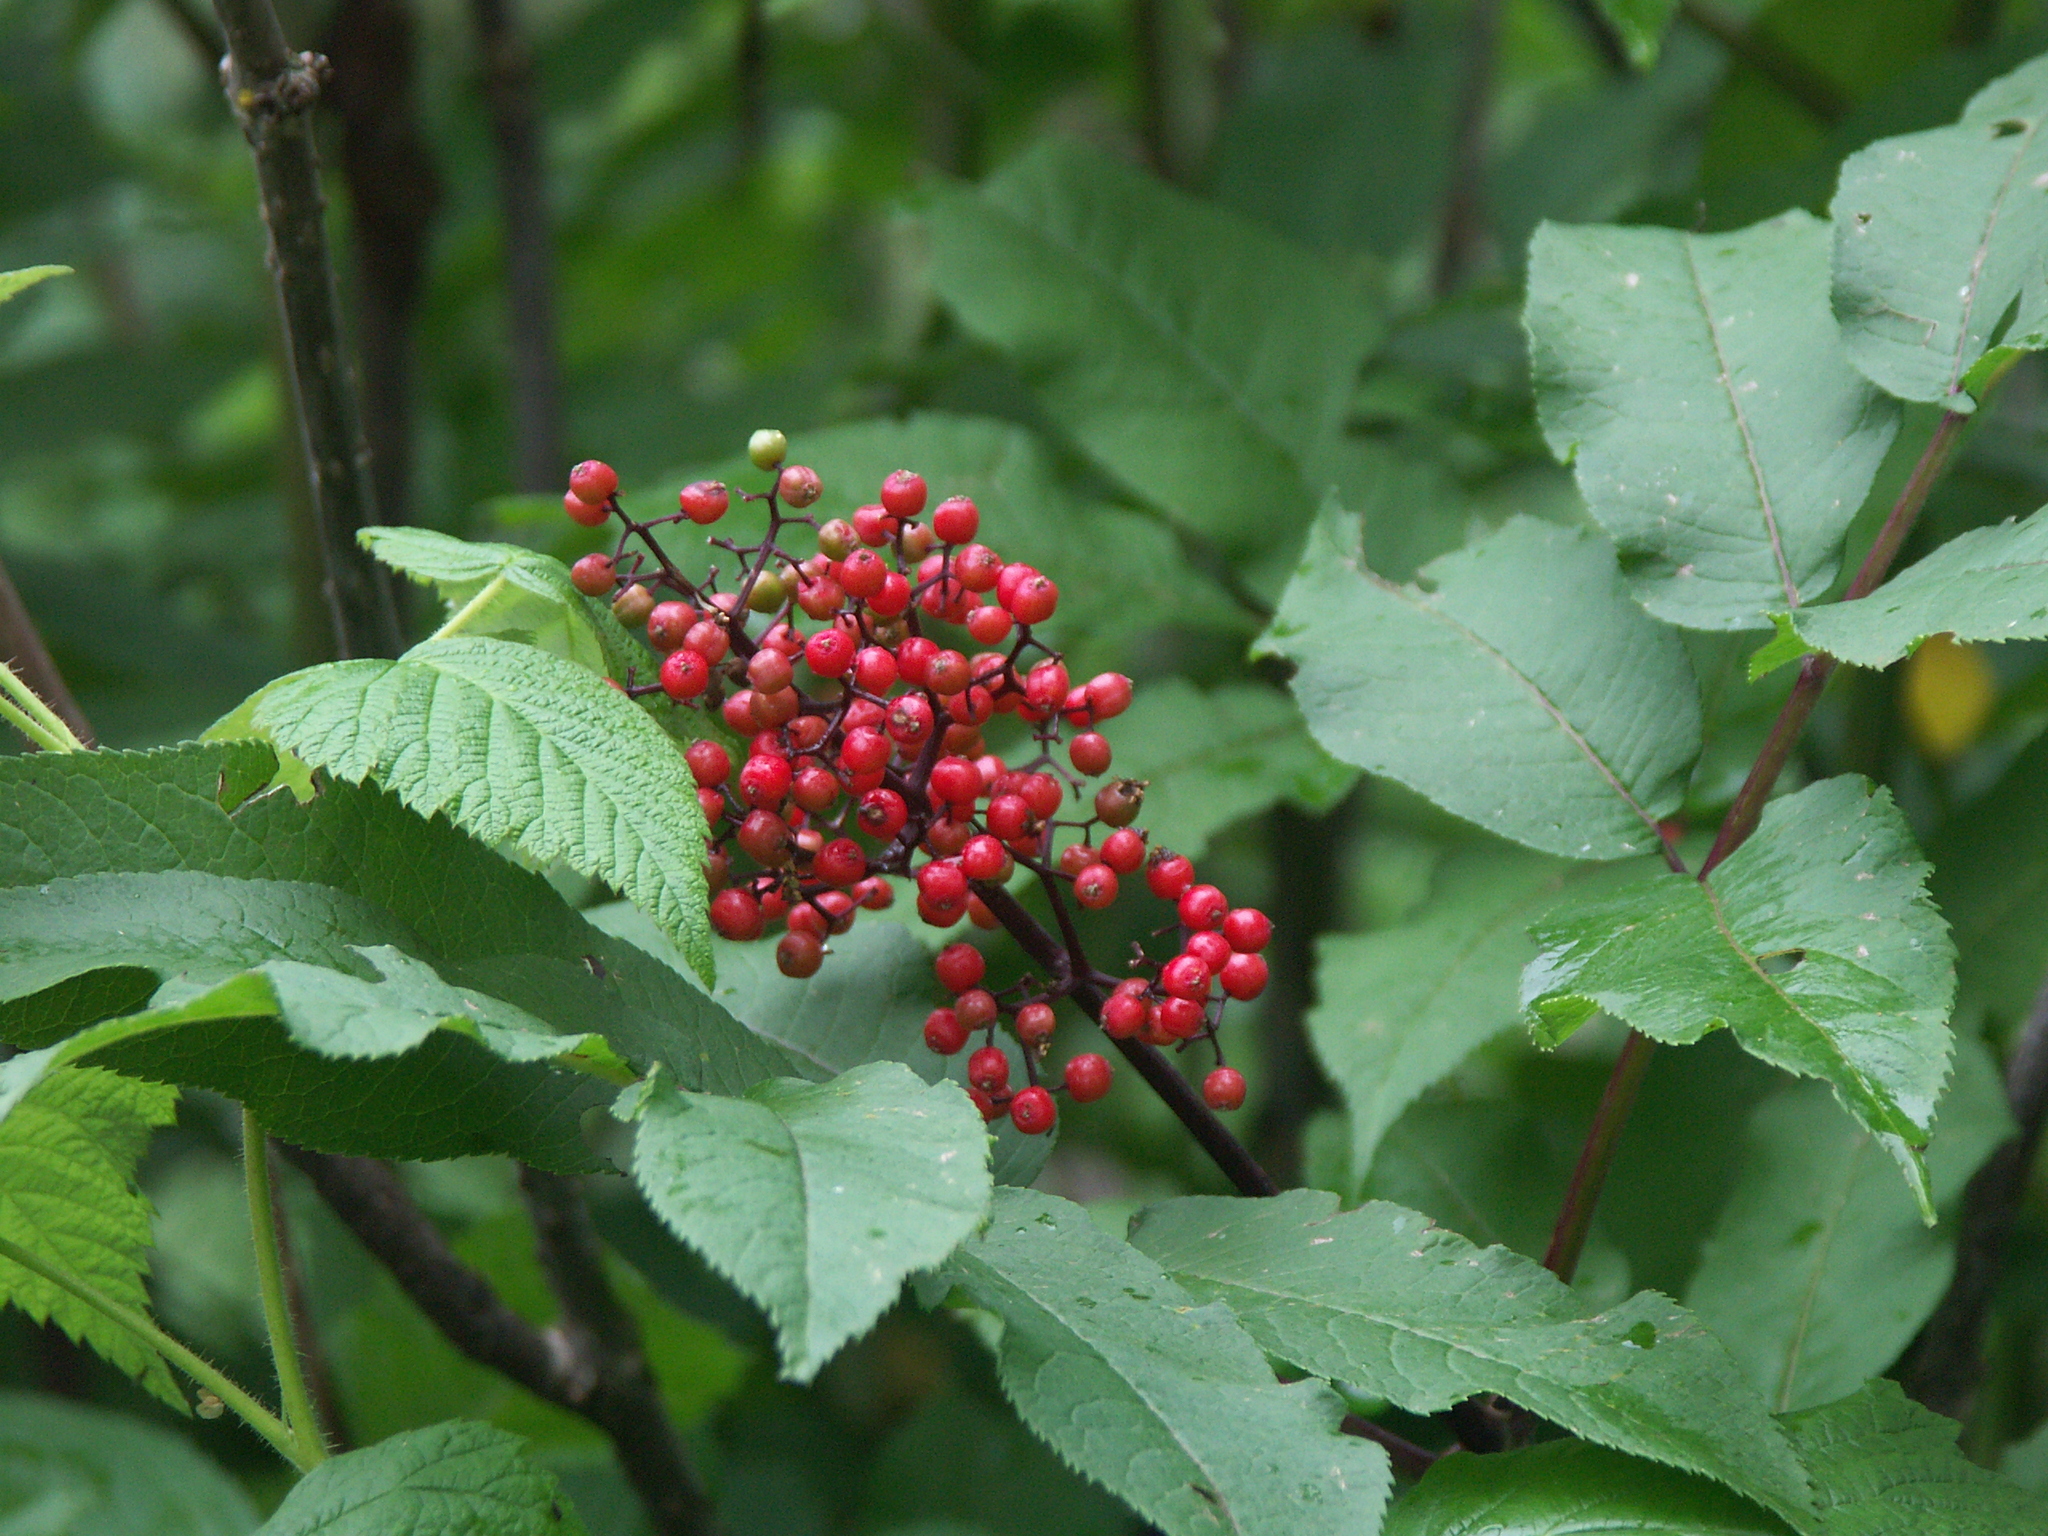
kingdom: Plantae
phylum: Tracheophyta
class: Magnoliopsida
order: Dipsacales
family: Viburnaceae
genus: Sambucus
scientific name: Sambucus racemosa
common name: Red-berried elder
